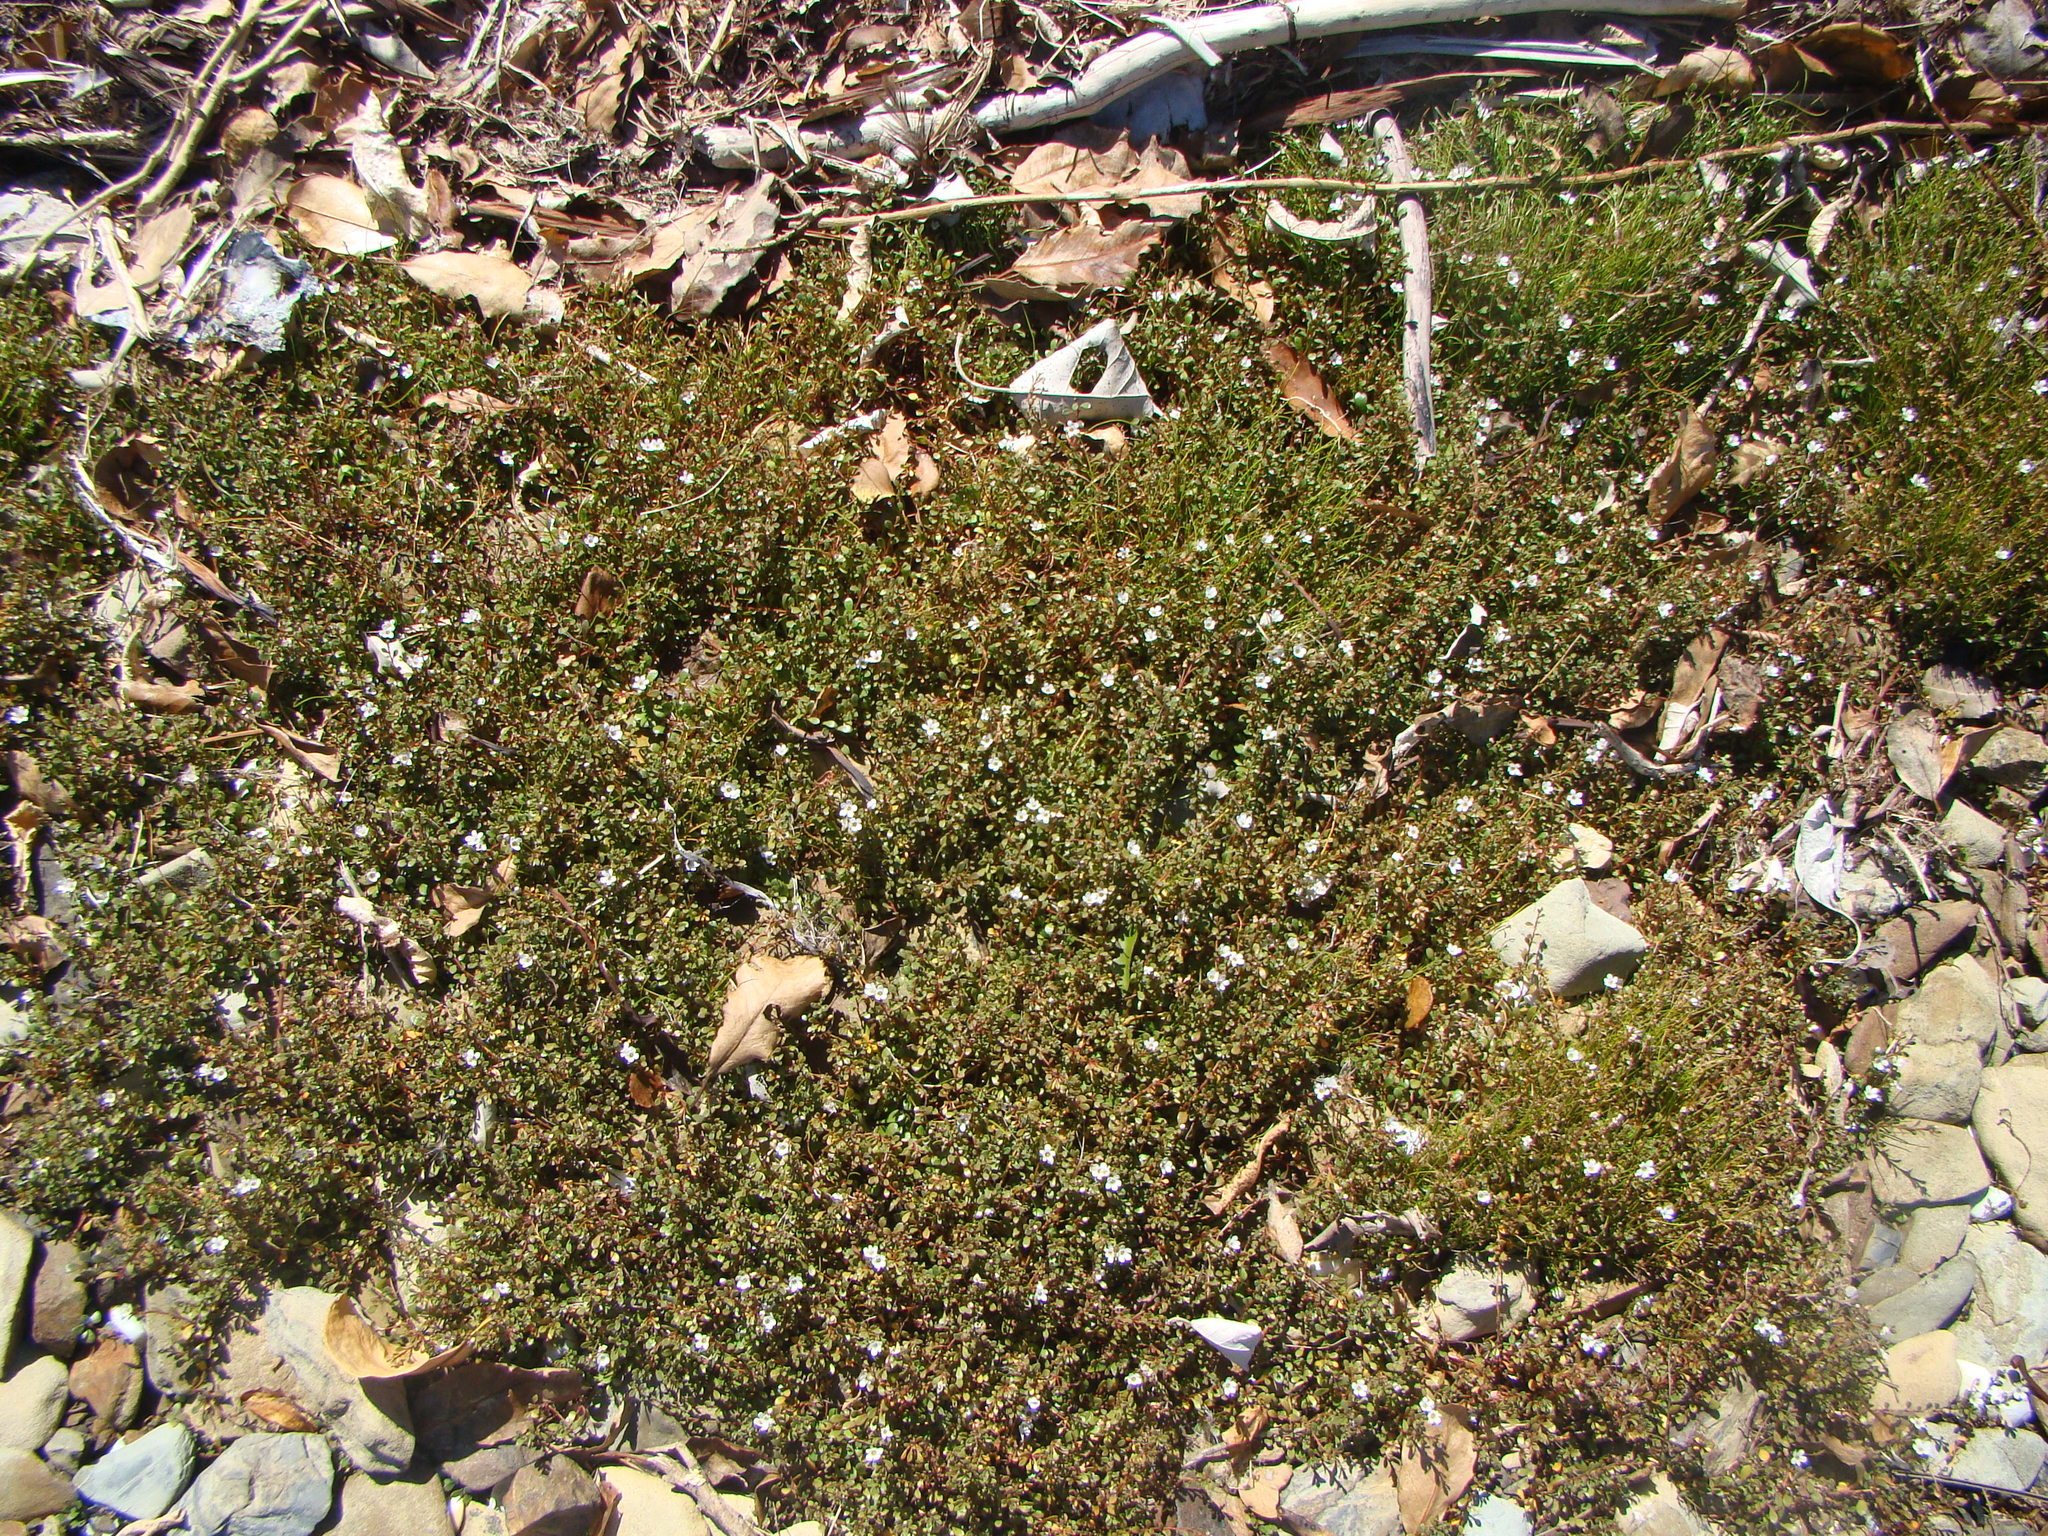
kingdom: Plantae
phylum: Tracheophyta
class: Magnoliopsida
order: Ericales
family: Primulaceae
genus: Samolus
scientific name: Samolus repens
